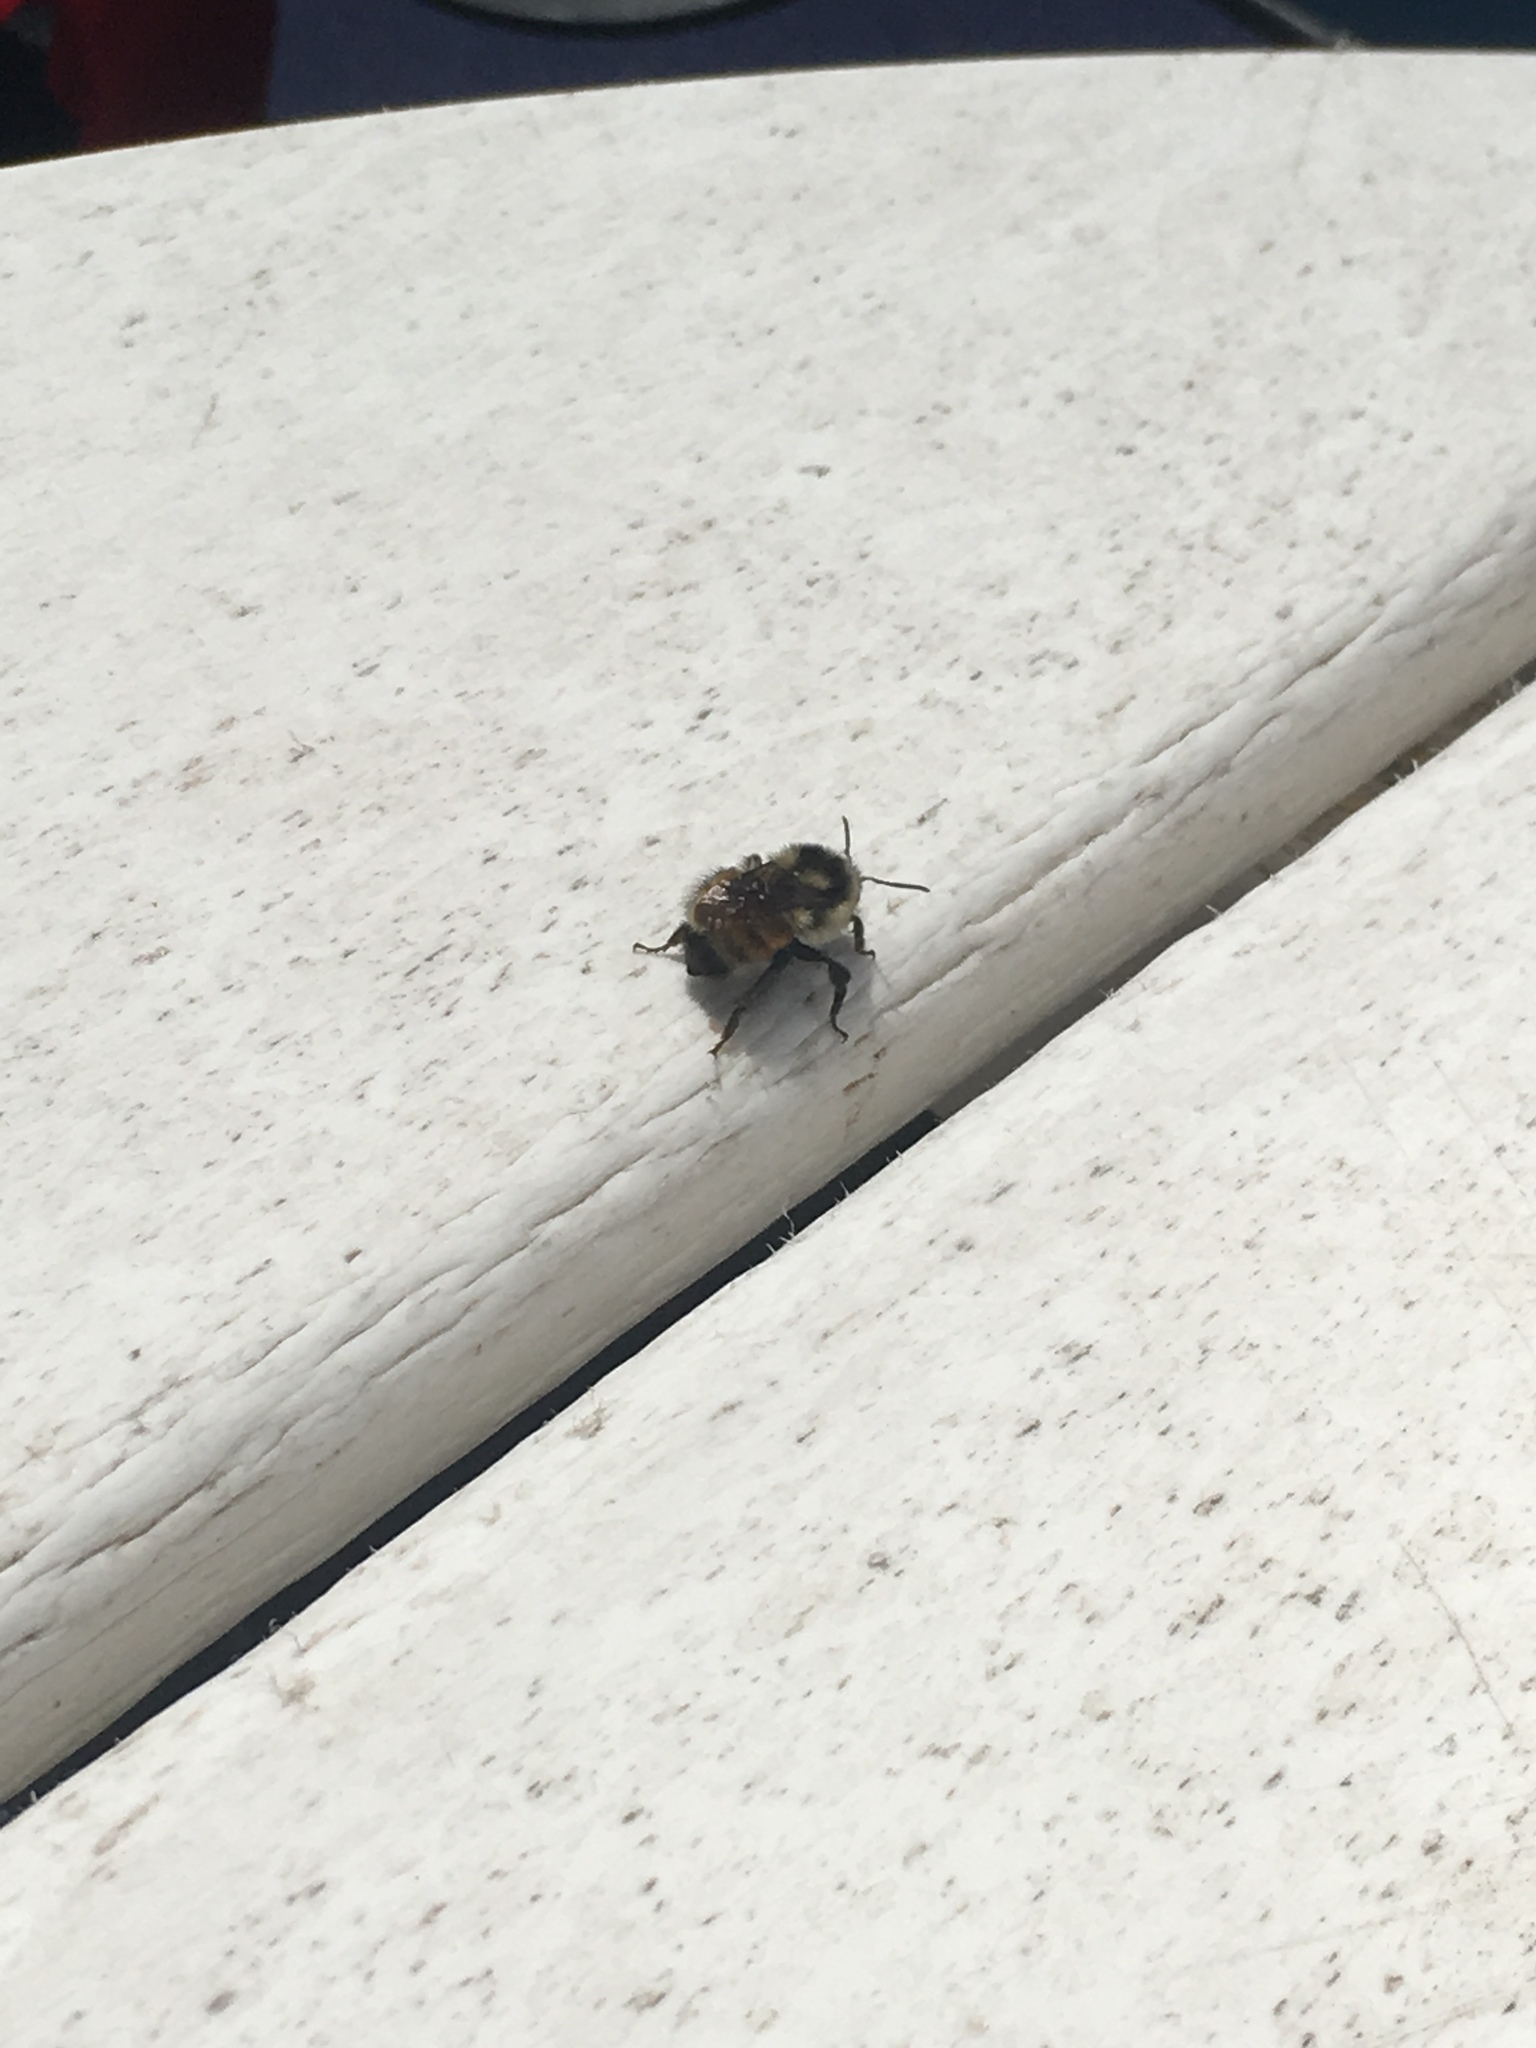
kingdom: Animalia
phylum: Arthropoda
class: Insecta
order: Hymenoptera
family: Apidae
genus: Bombus
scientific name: Bombus ternarius
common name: Tri-colored bumble bee
